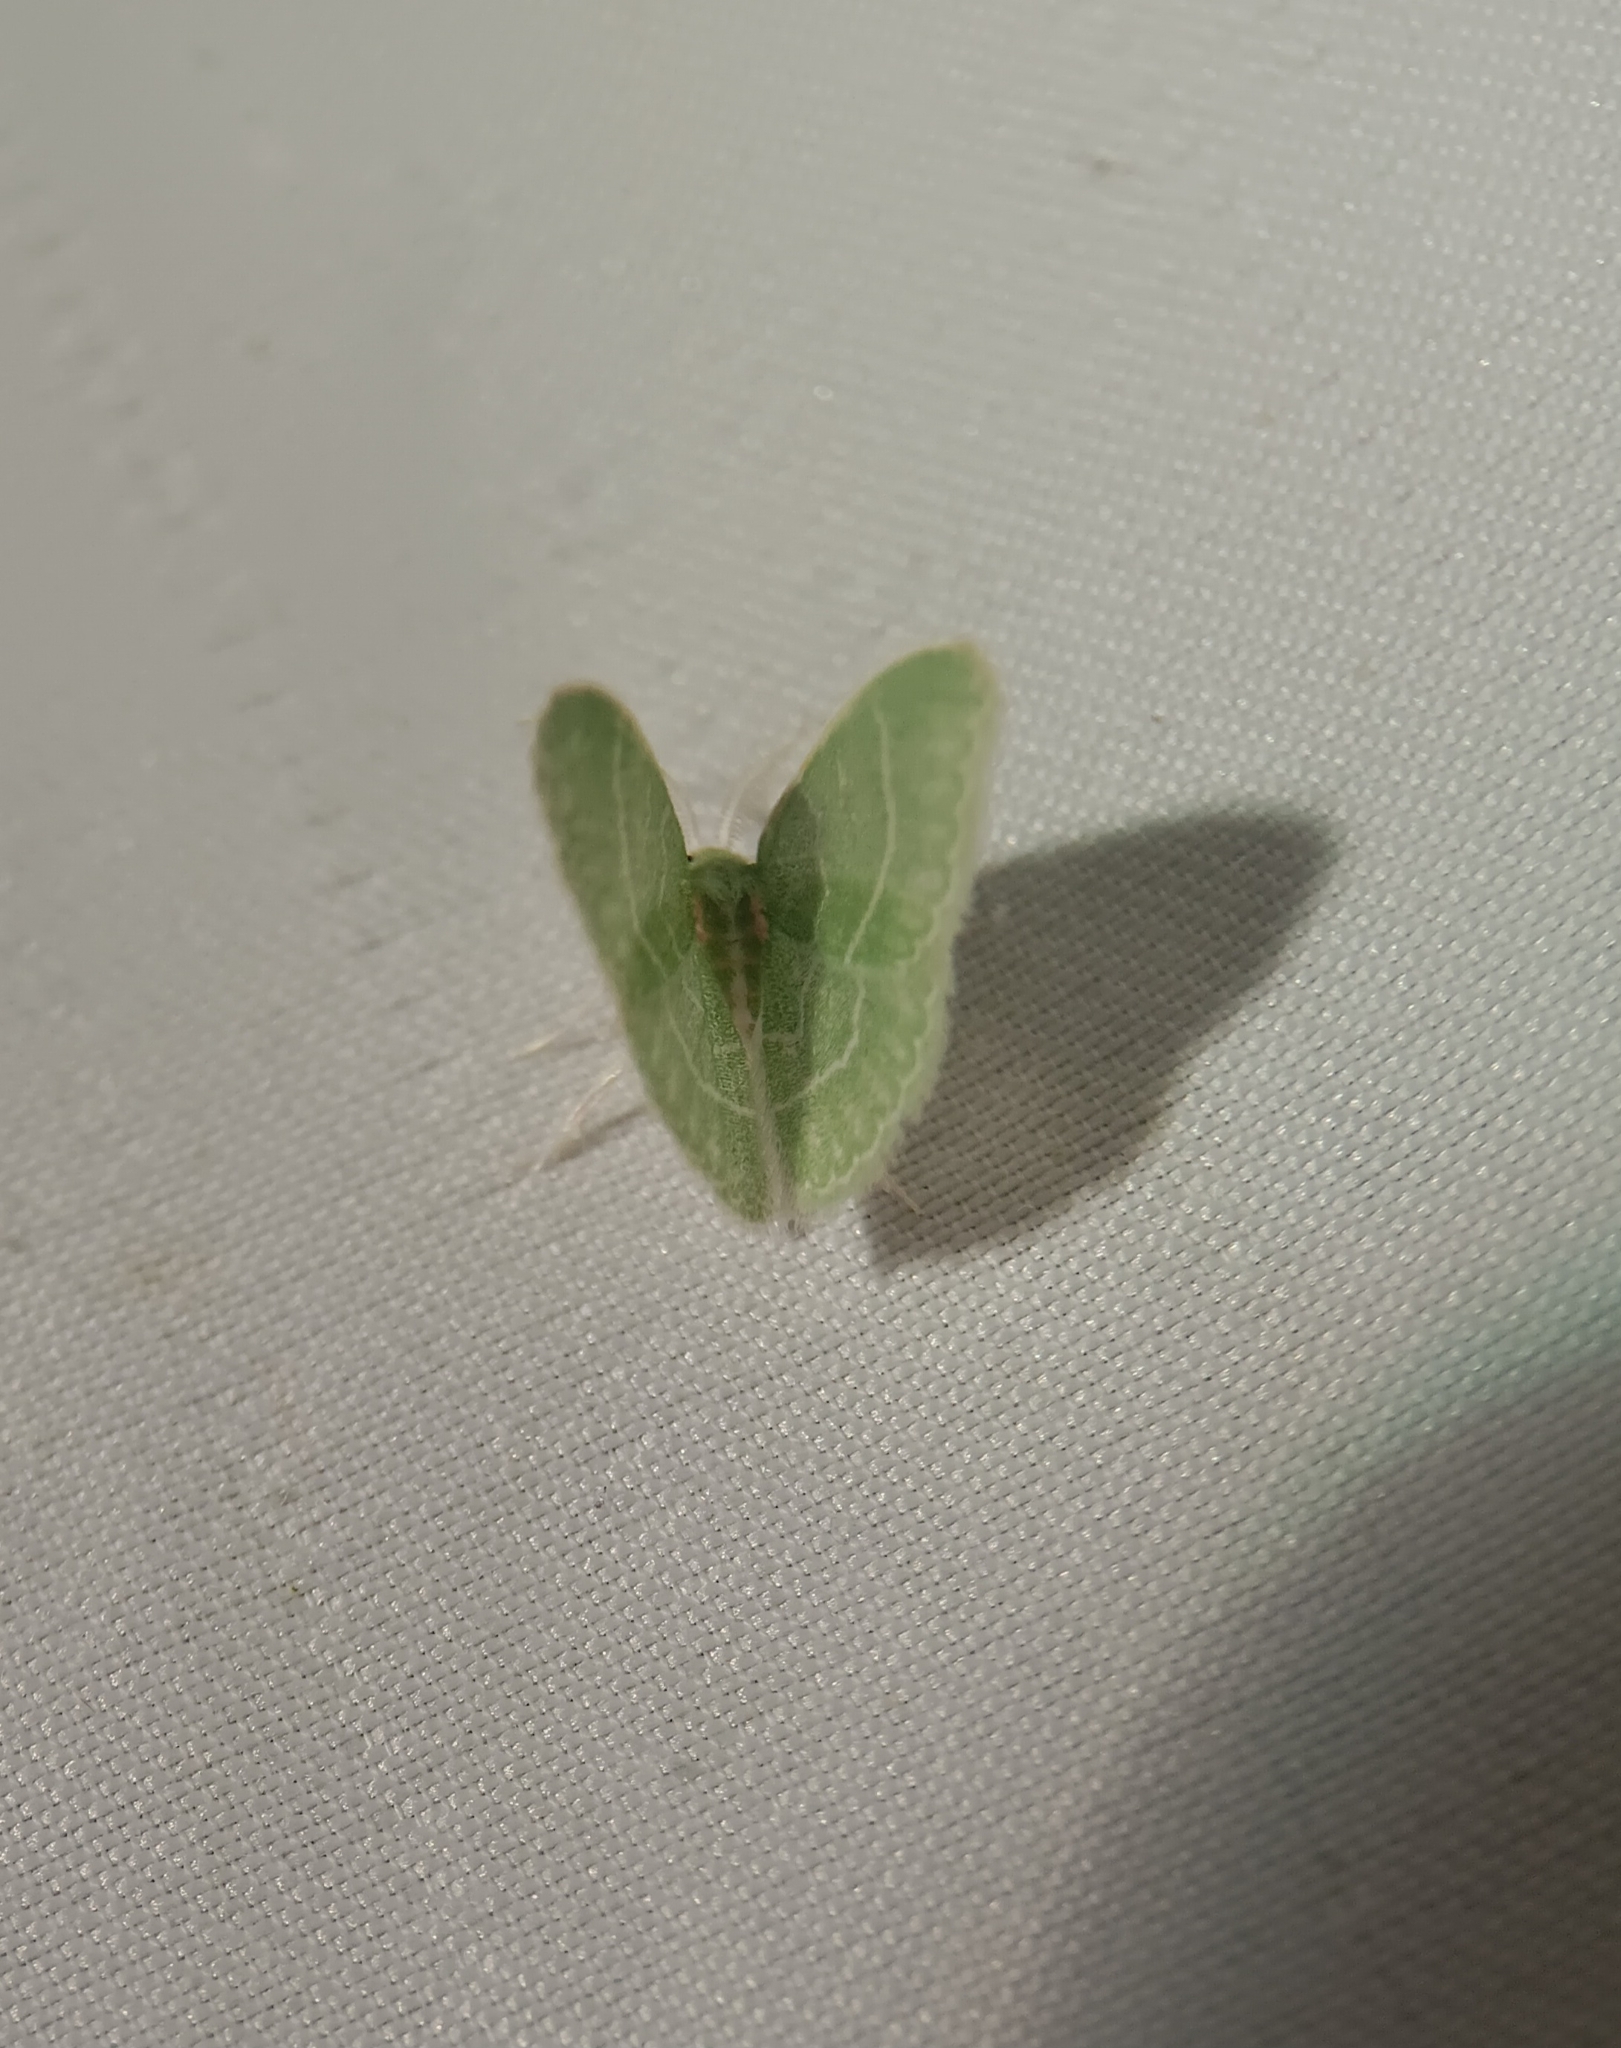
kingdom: Animalia
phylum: Arthropoda
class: Insecta
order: Lepidoptera
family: Geometridae
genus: Synchlora
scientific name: Synchlora aerata
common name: Wavy-lined emerald
